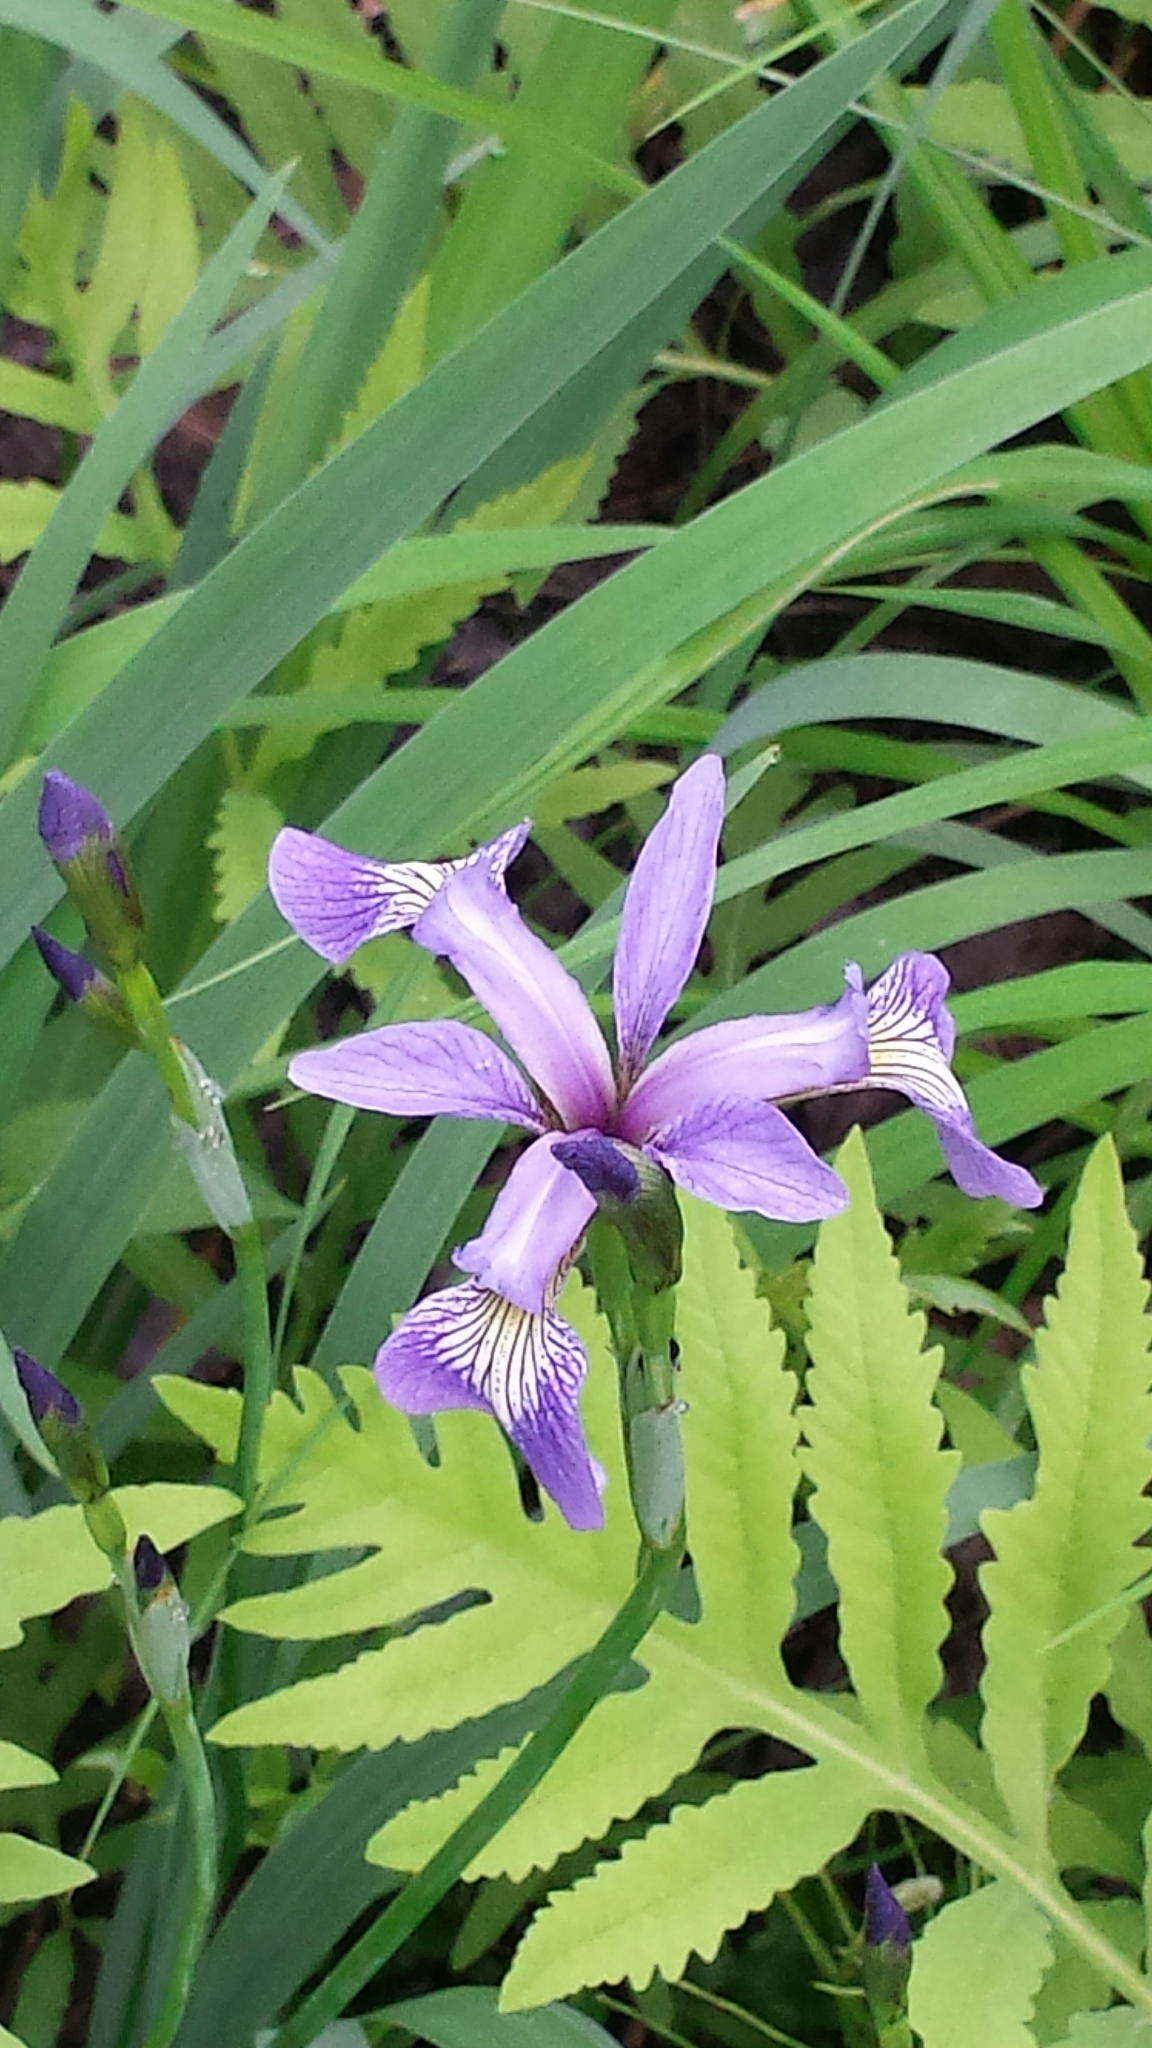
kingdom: Plantae
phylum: Tracheophyta
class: Liliopsida
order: Asparagales
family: Iridaceae
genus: Iris
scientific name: Iris versicolor
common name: Purple iris
